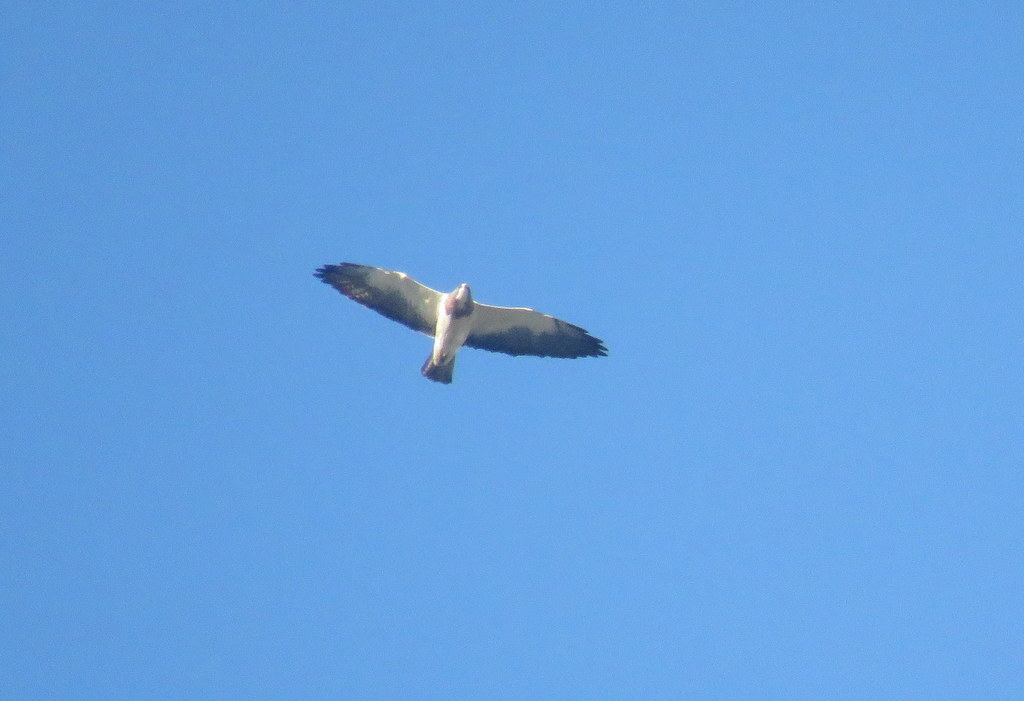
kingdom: Animalia
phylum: Chordata
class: Aves
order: Accipitriformes
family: Accipitridae
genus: Buteo
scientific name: Buteo swainsoni
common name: Swainson's hawk
